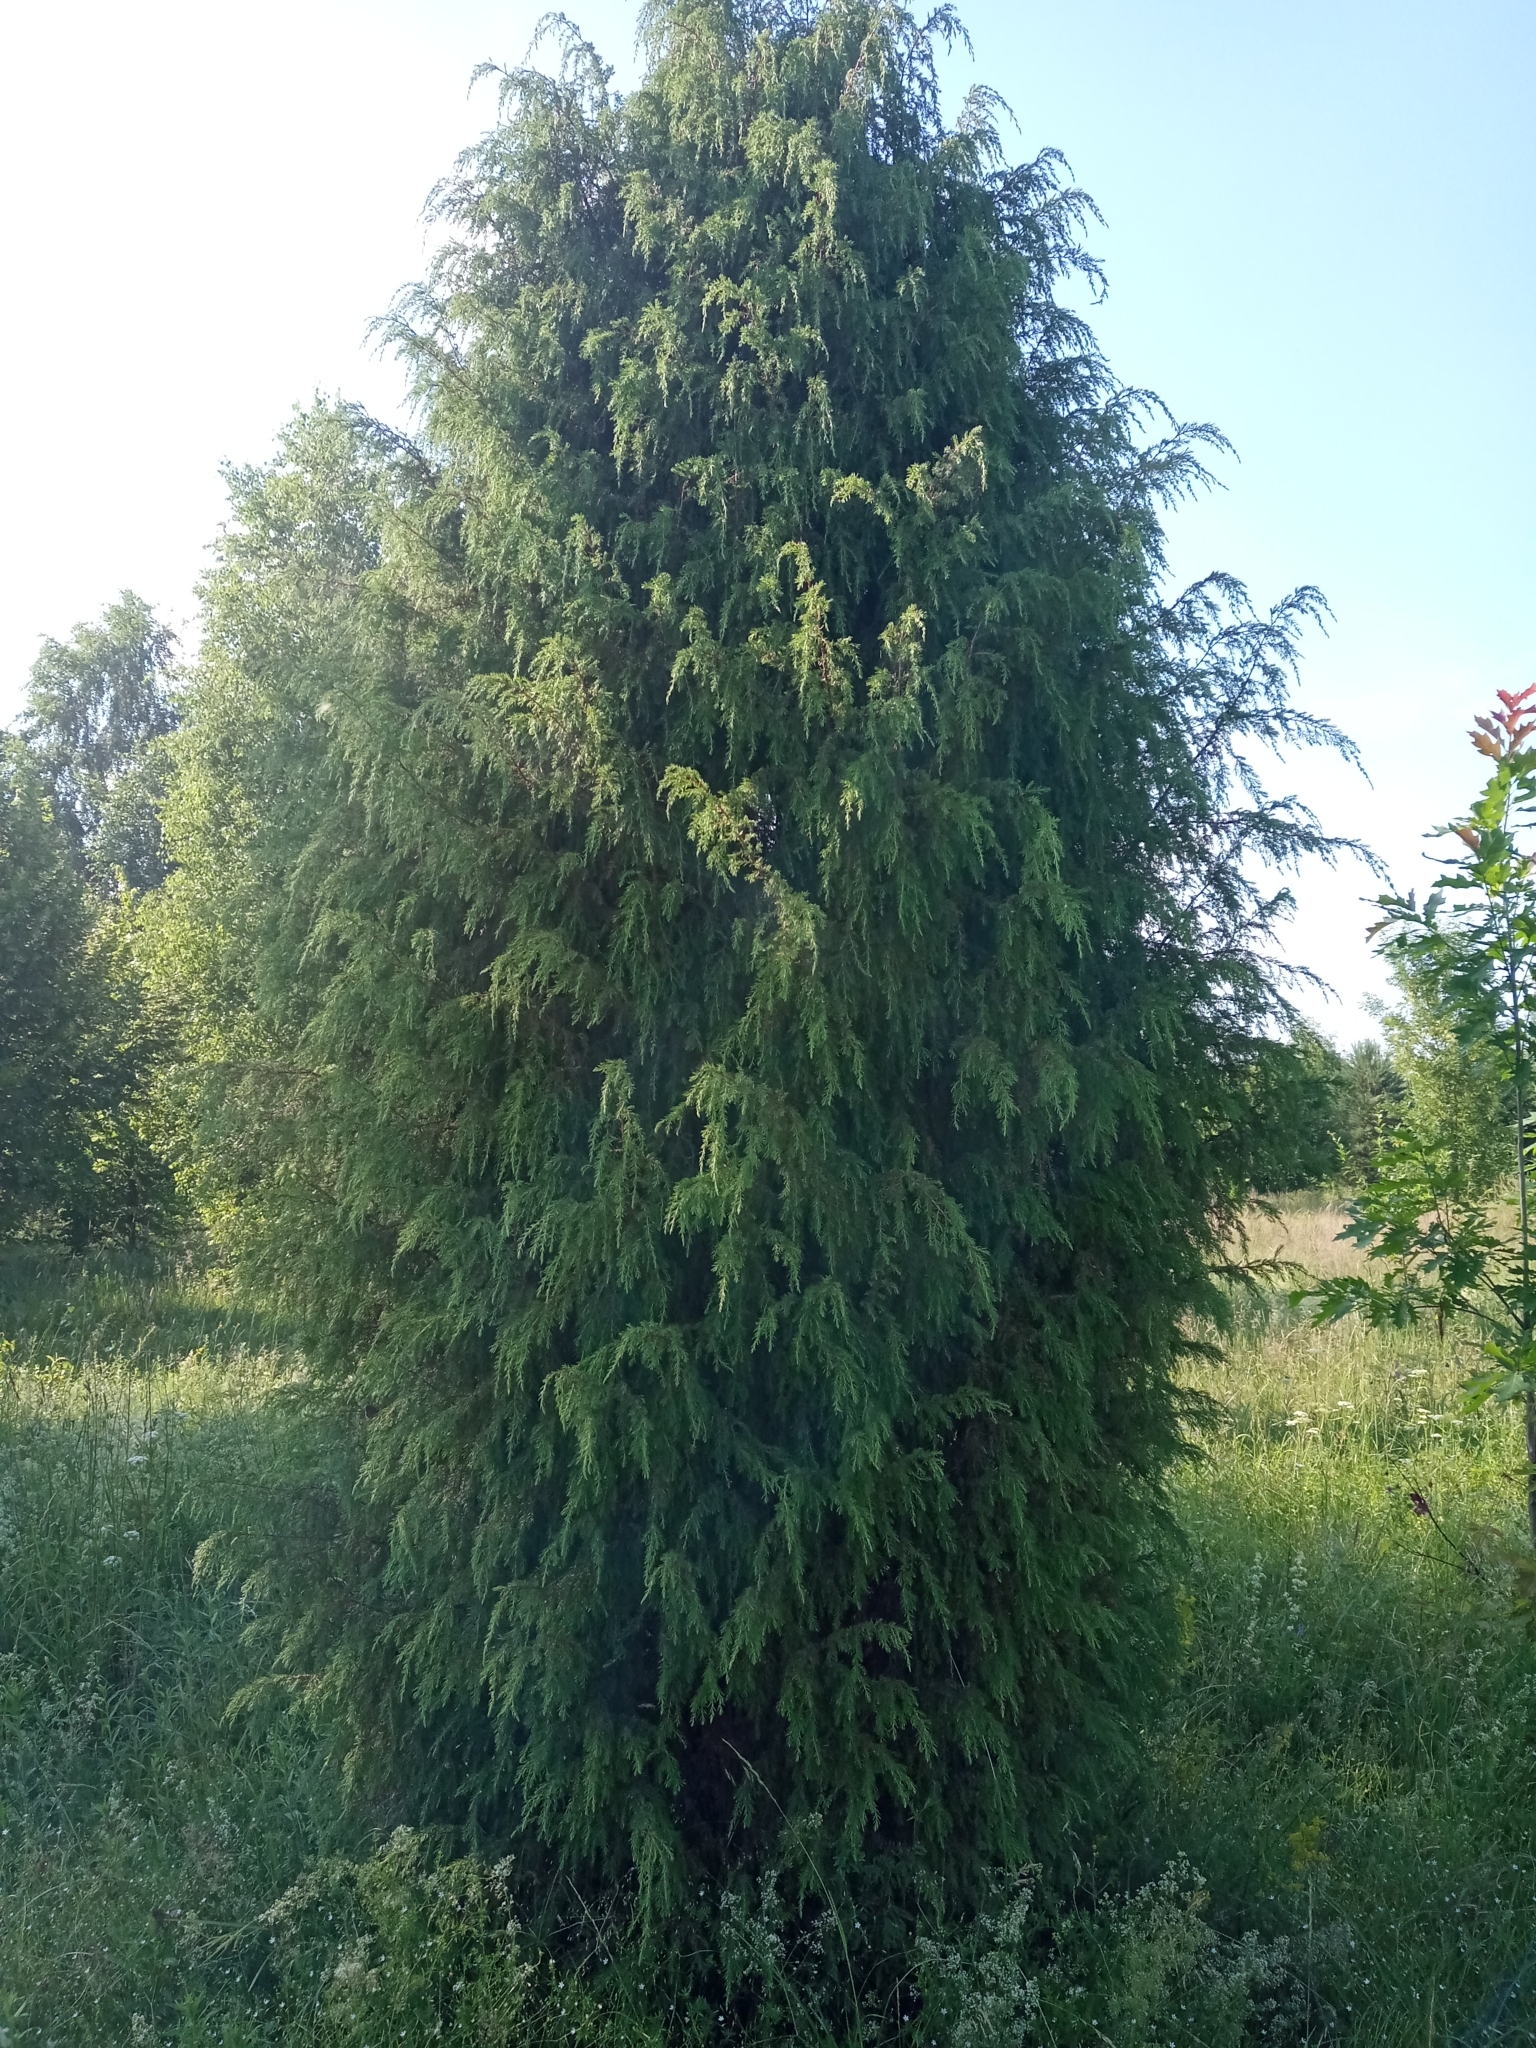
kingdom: Plantae
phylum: Tracheophyta
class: Pinopsida
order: Pinales
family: Cupressaceae
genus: Juniperus
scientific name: Juniperus communis
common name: Common juniper
